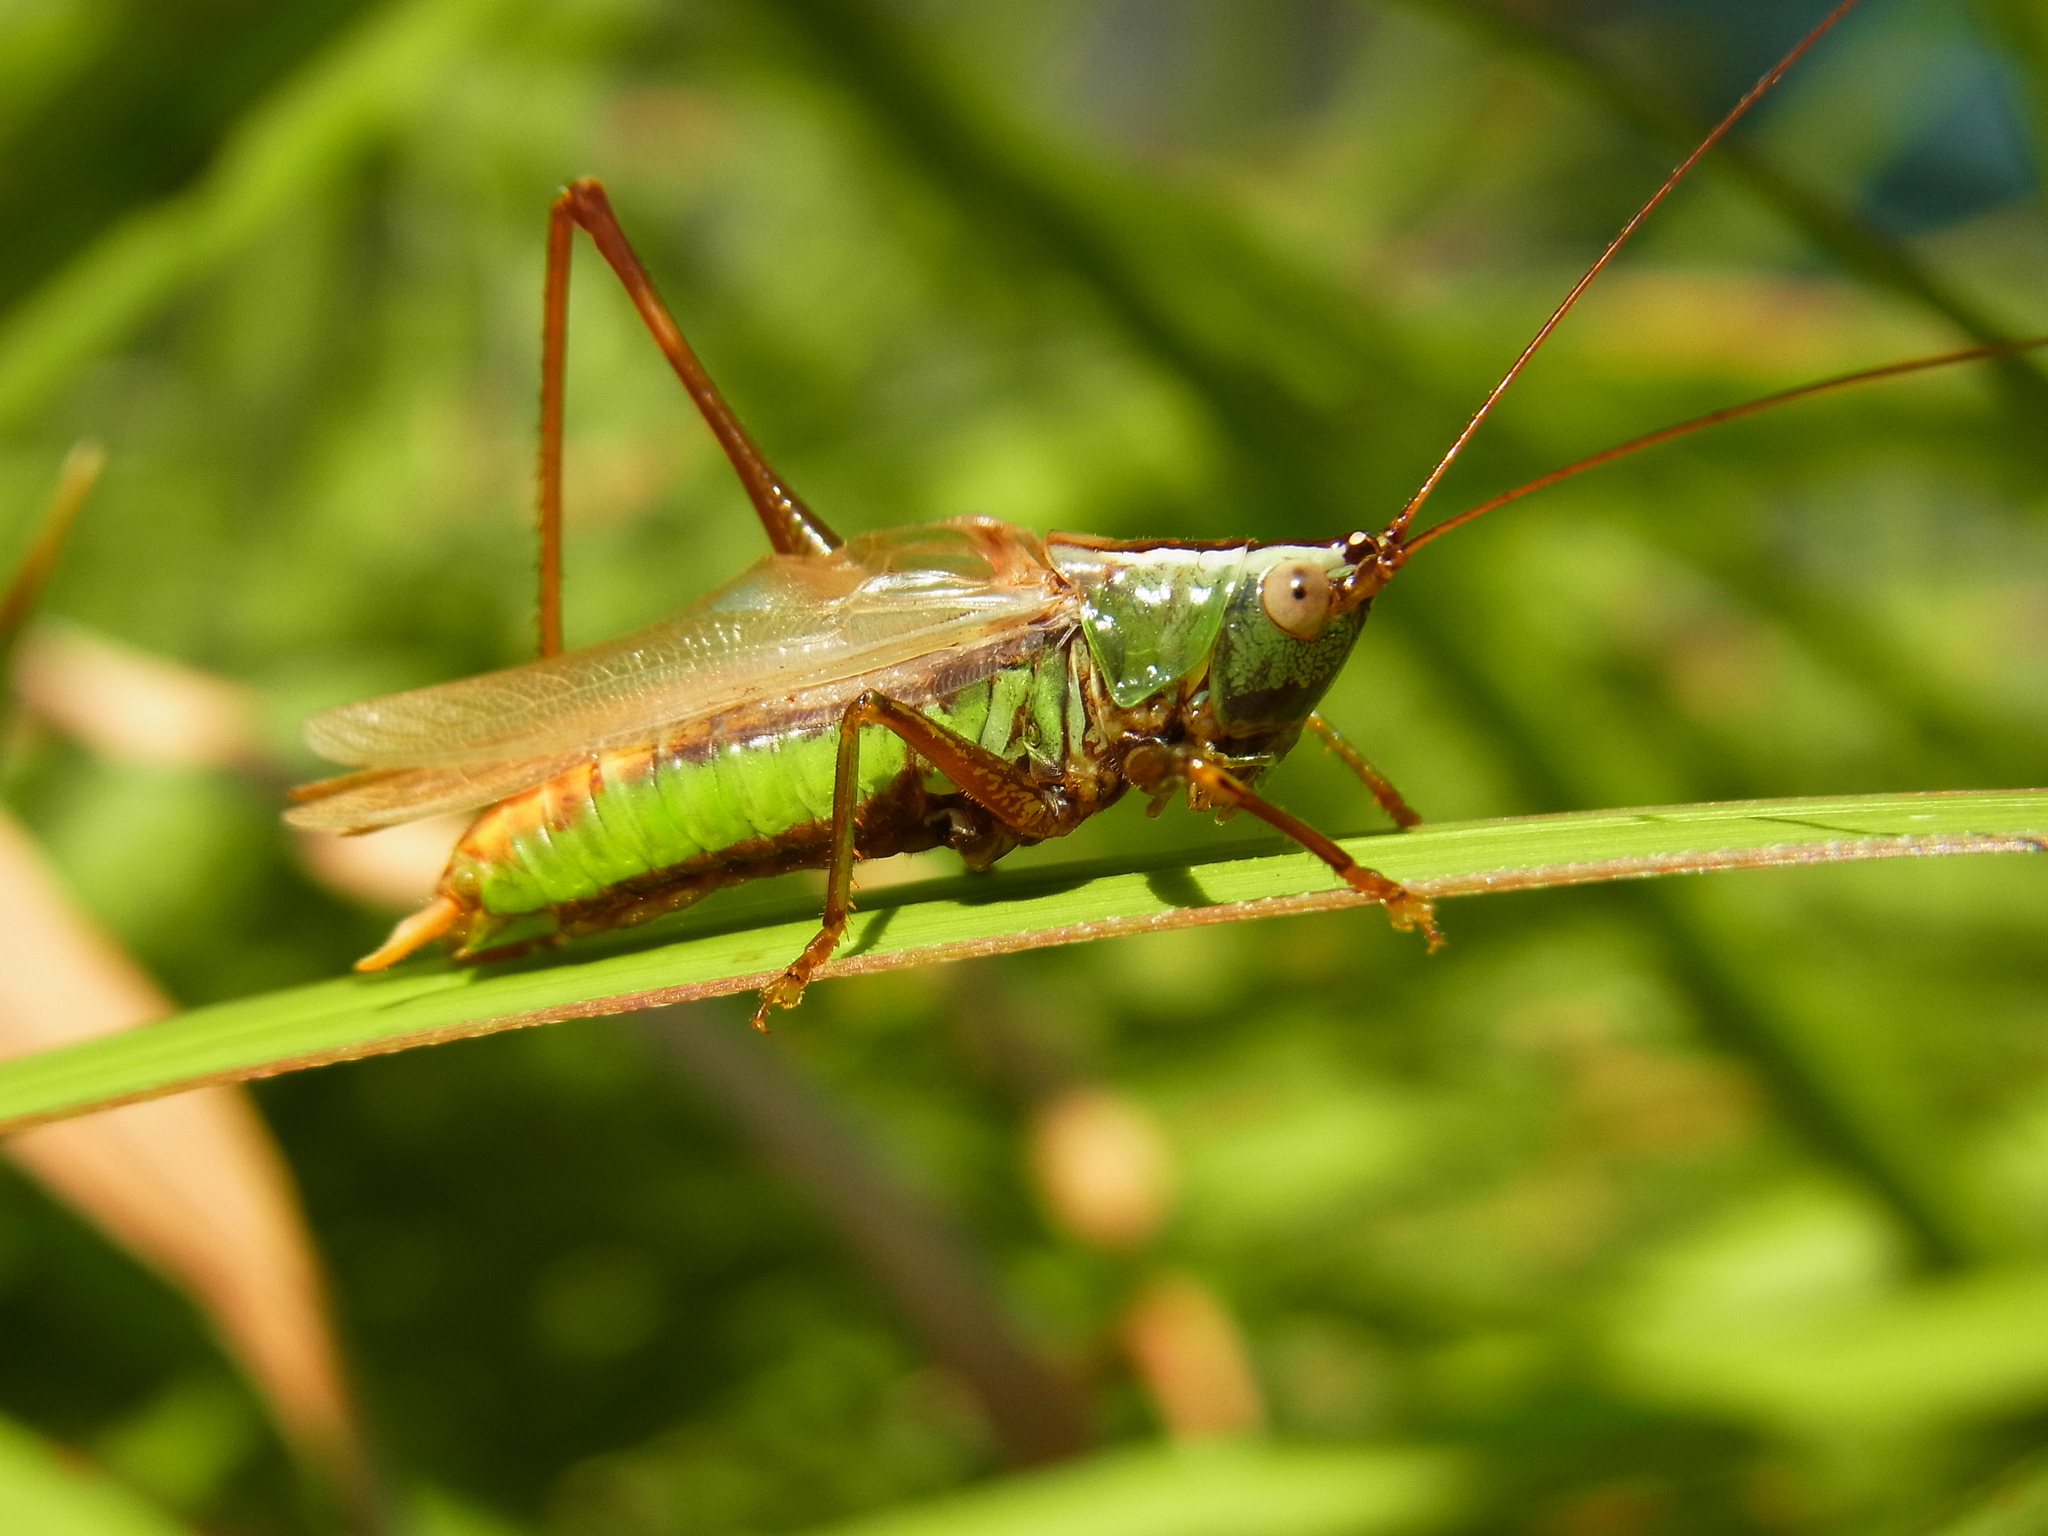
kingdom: Animalia
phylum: Arthropoda
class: Insecta
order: Orthoptera
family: Tettigoniidae
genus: Conocephalus
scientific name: Conocephalus exemptus
